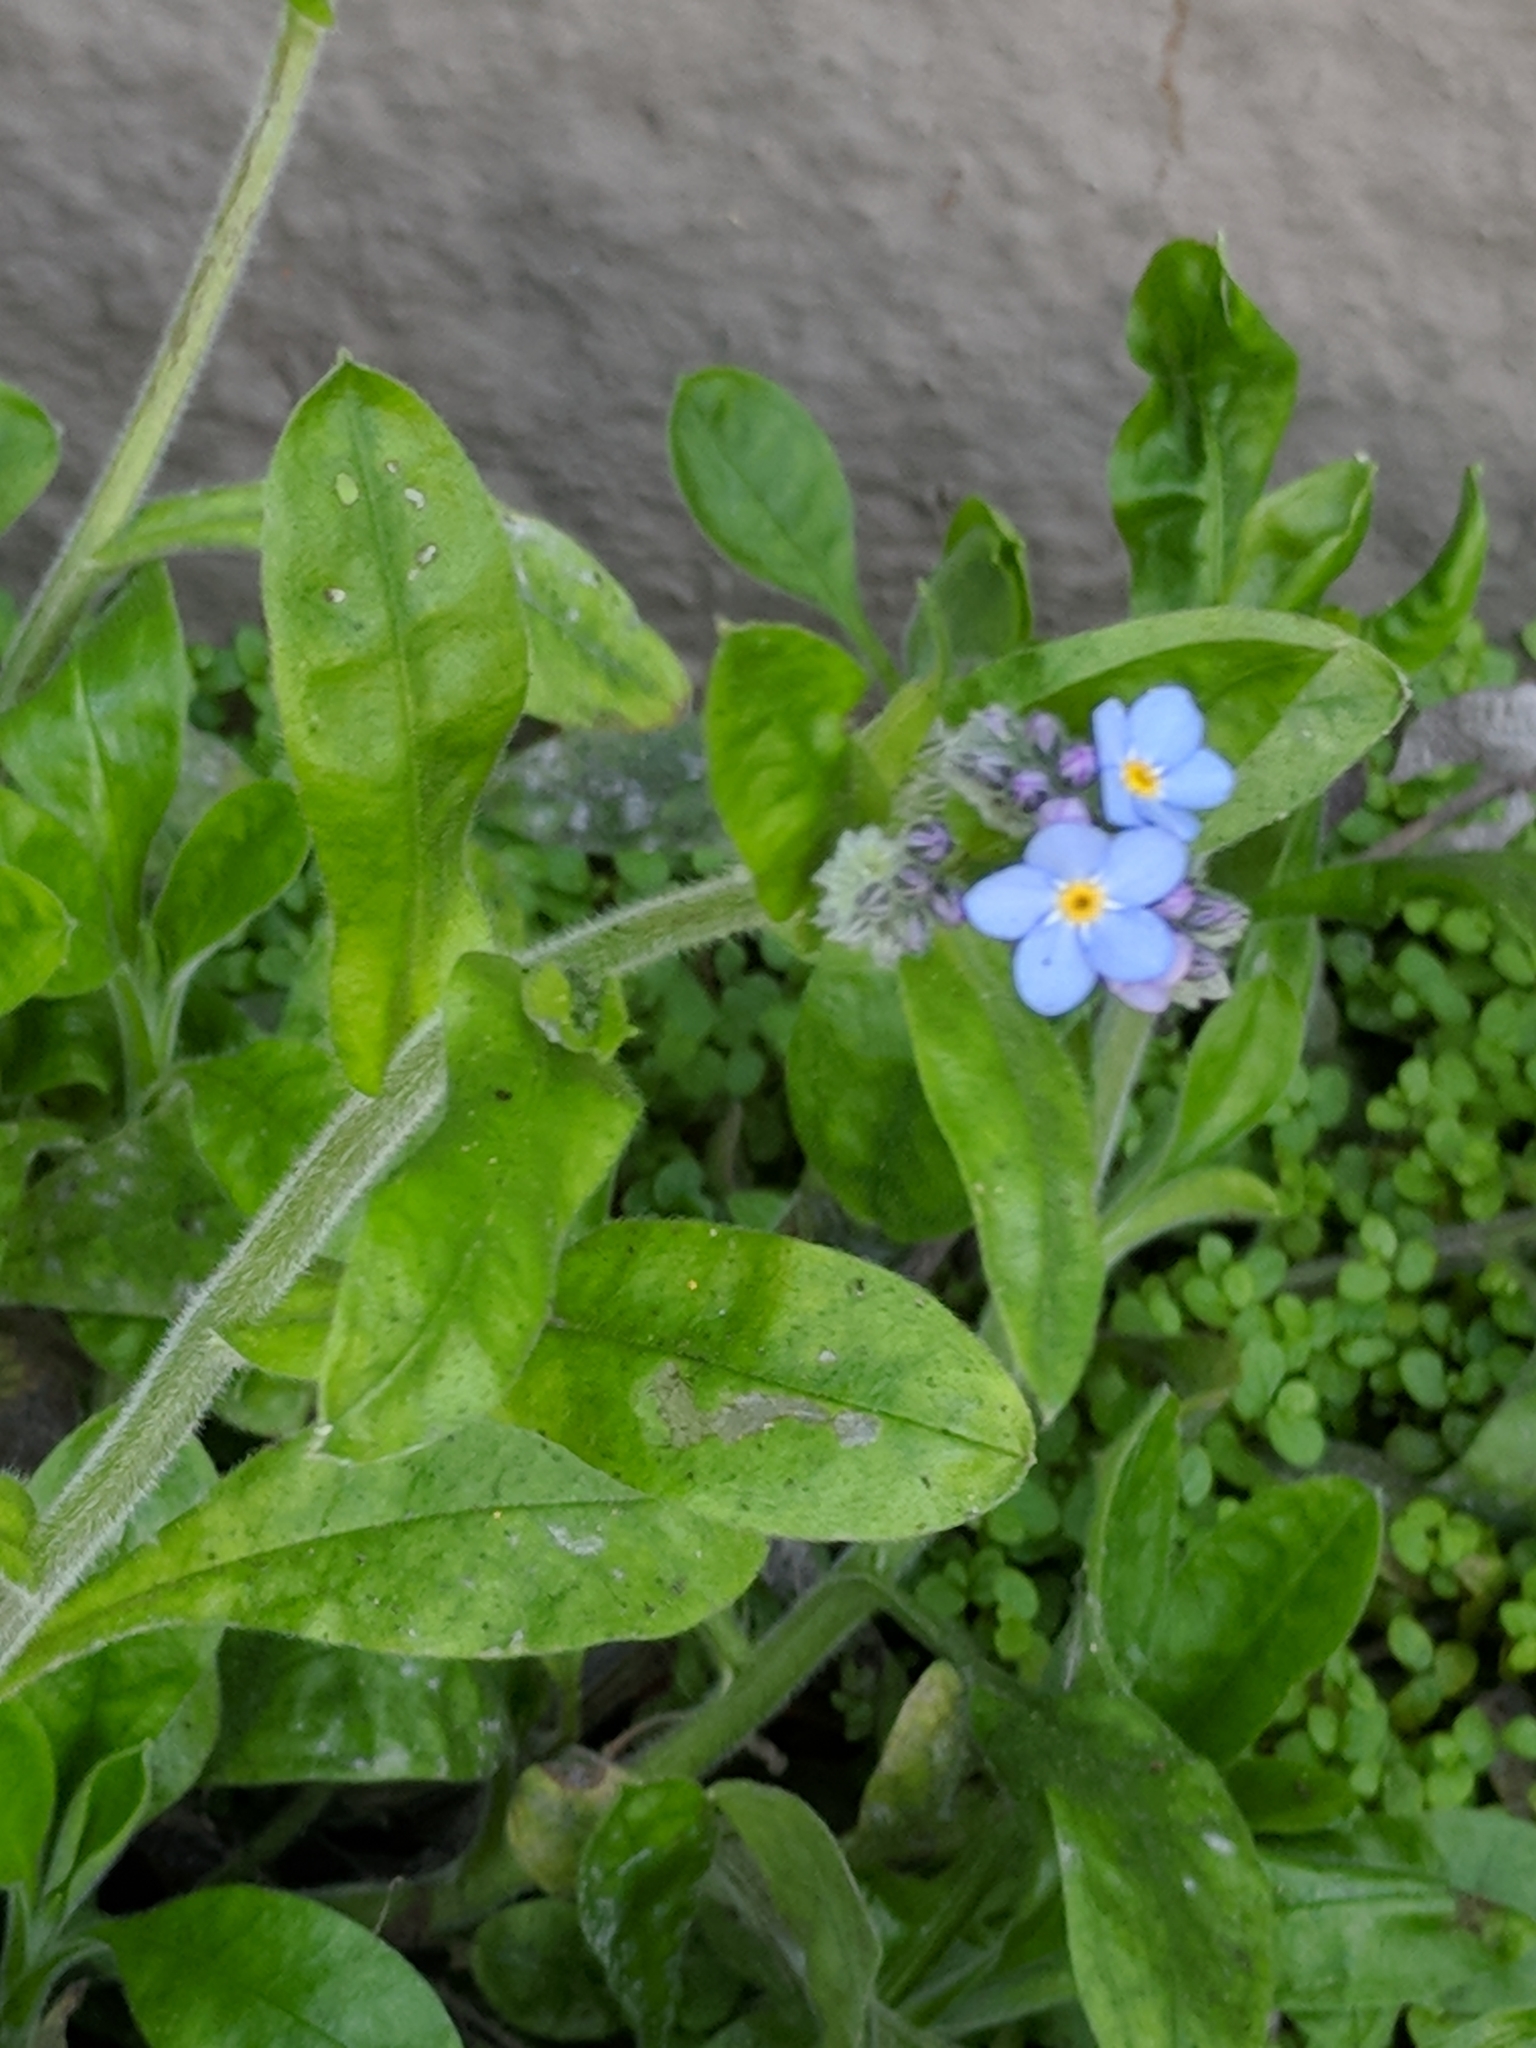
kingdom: Plantae
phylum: Tracheophyta
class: Magnoliopsida
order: Boraginales
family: Boraginaceae
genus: Myosotis
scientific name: Myosotis latifolia
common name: Broadleaf forget-me-not
